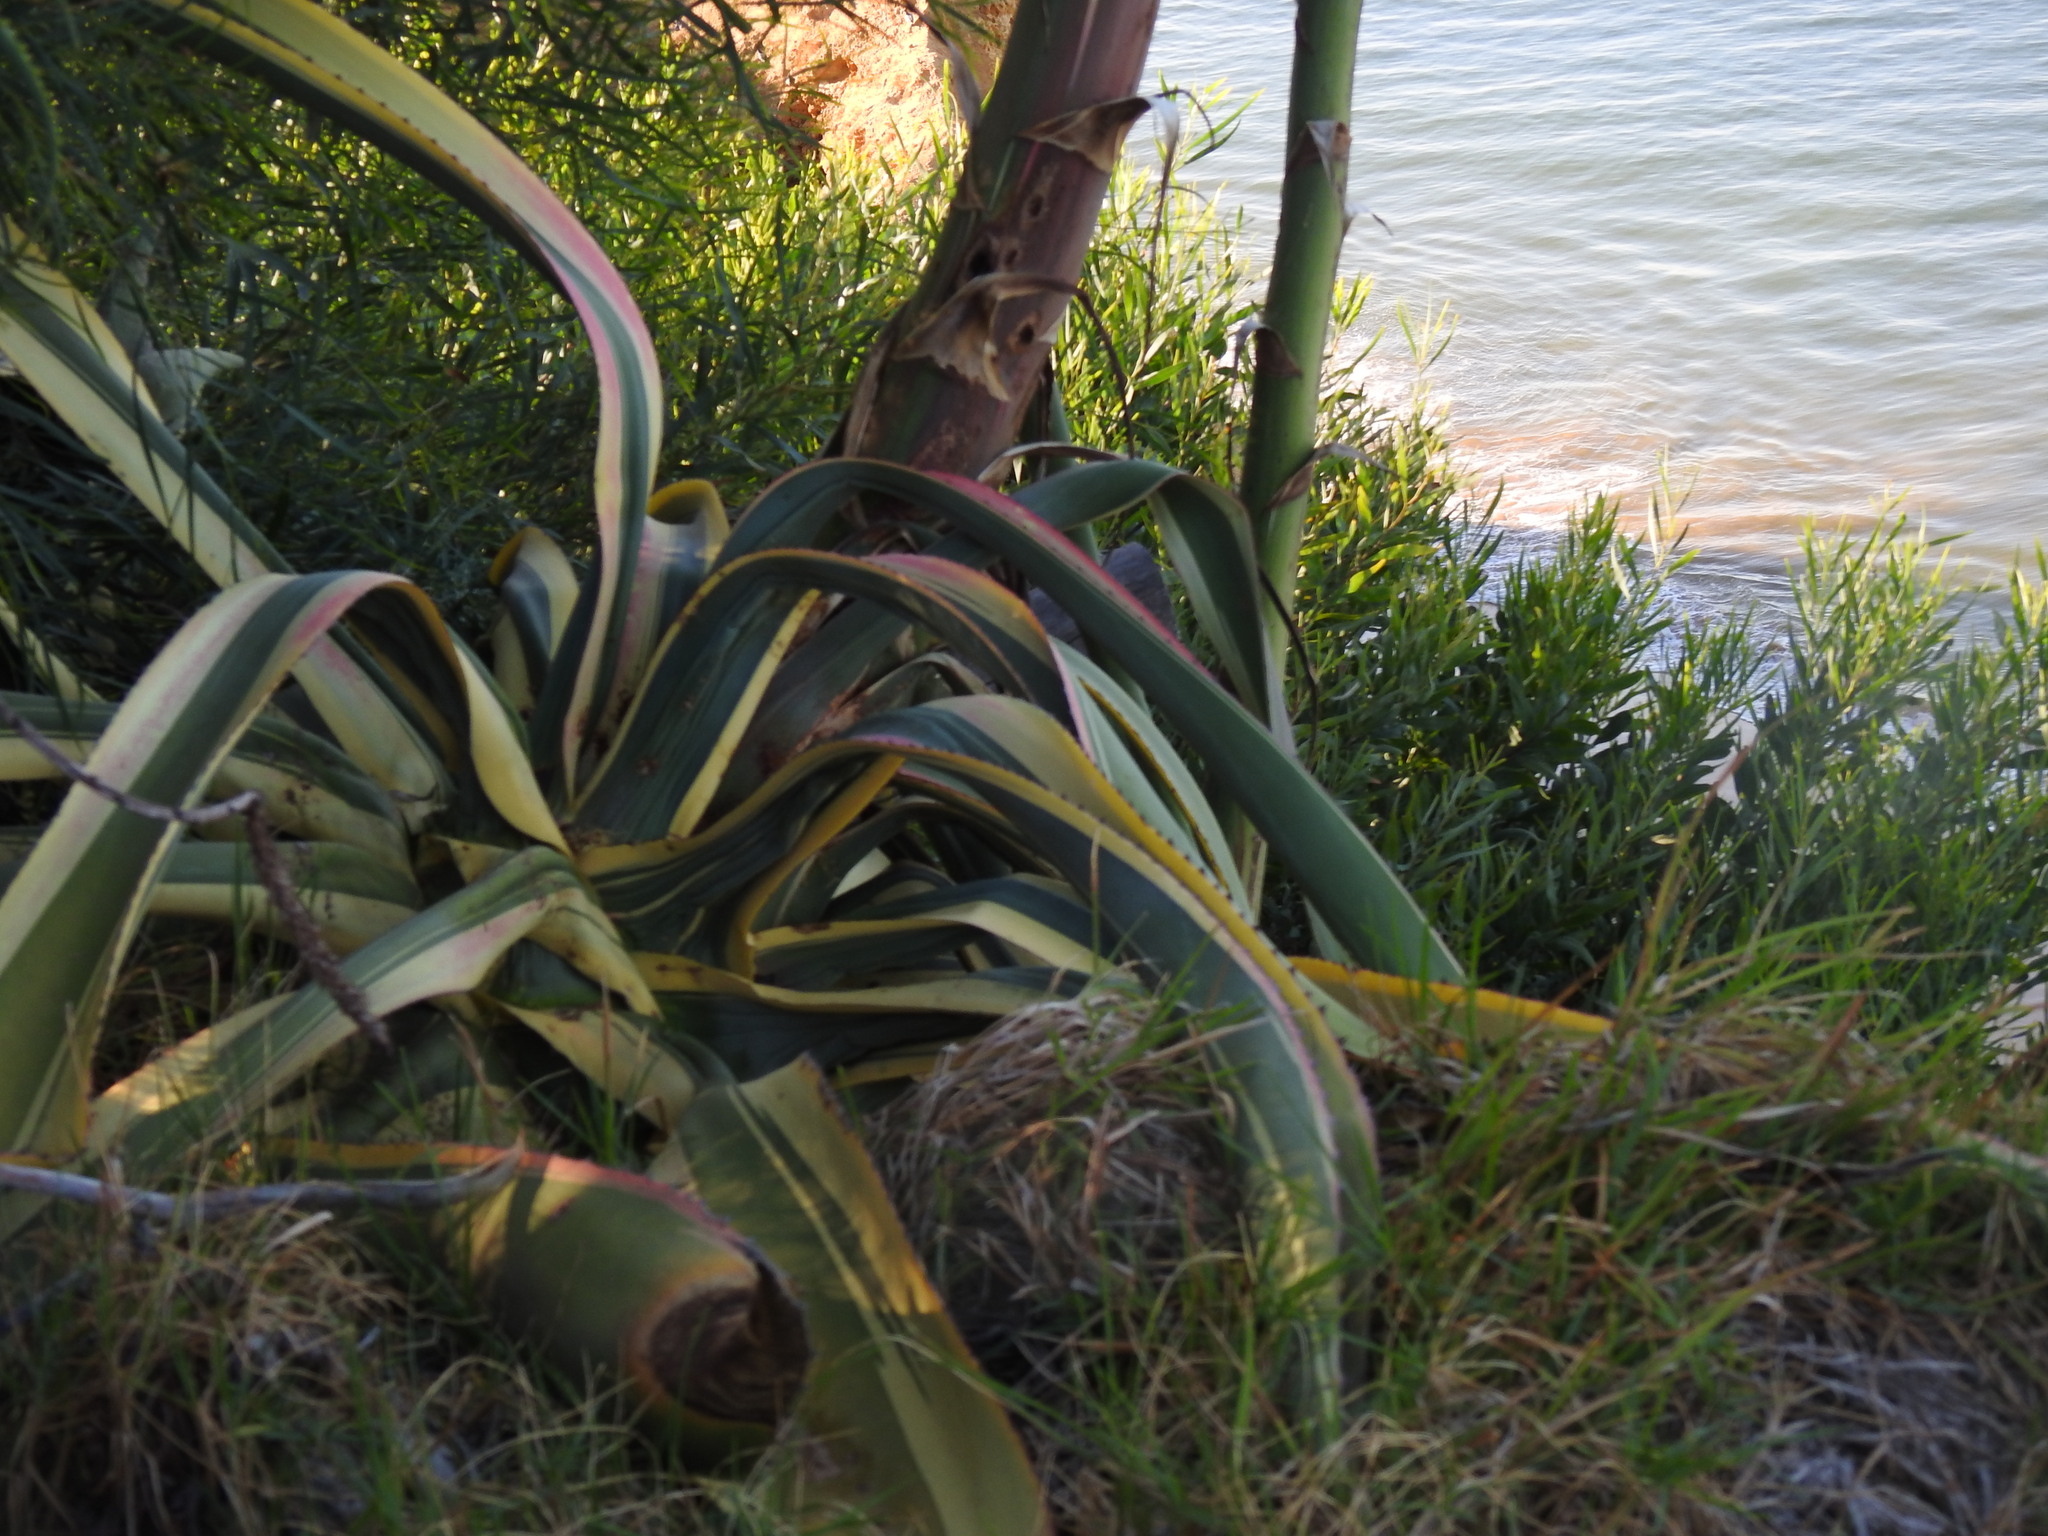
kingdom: Plantae
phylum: Tracheophyta
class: Liliopsida
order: Asparagales
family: Asparagaceae
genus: Agave
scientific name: Agave americana
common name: Centuryplant
